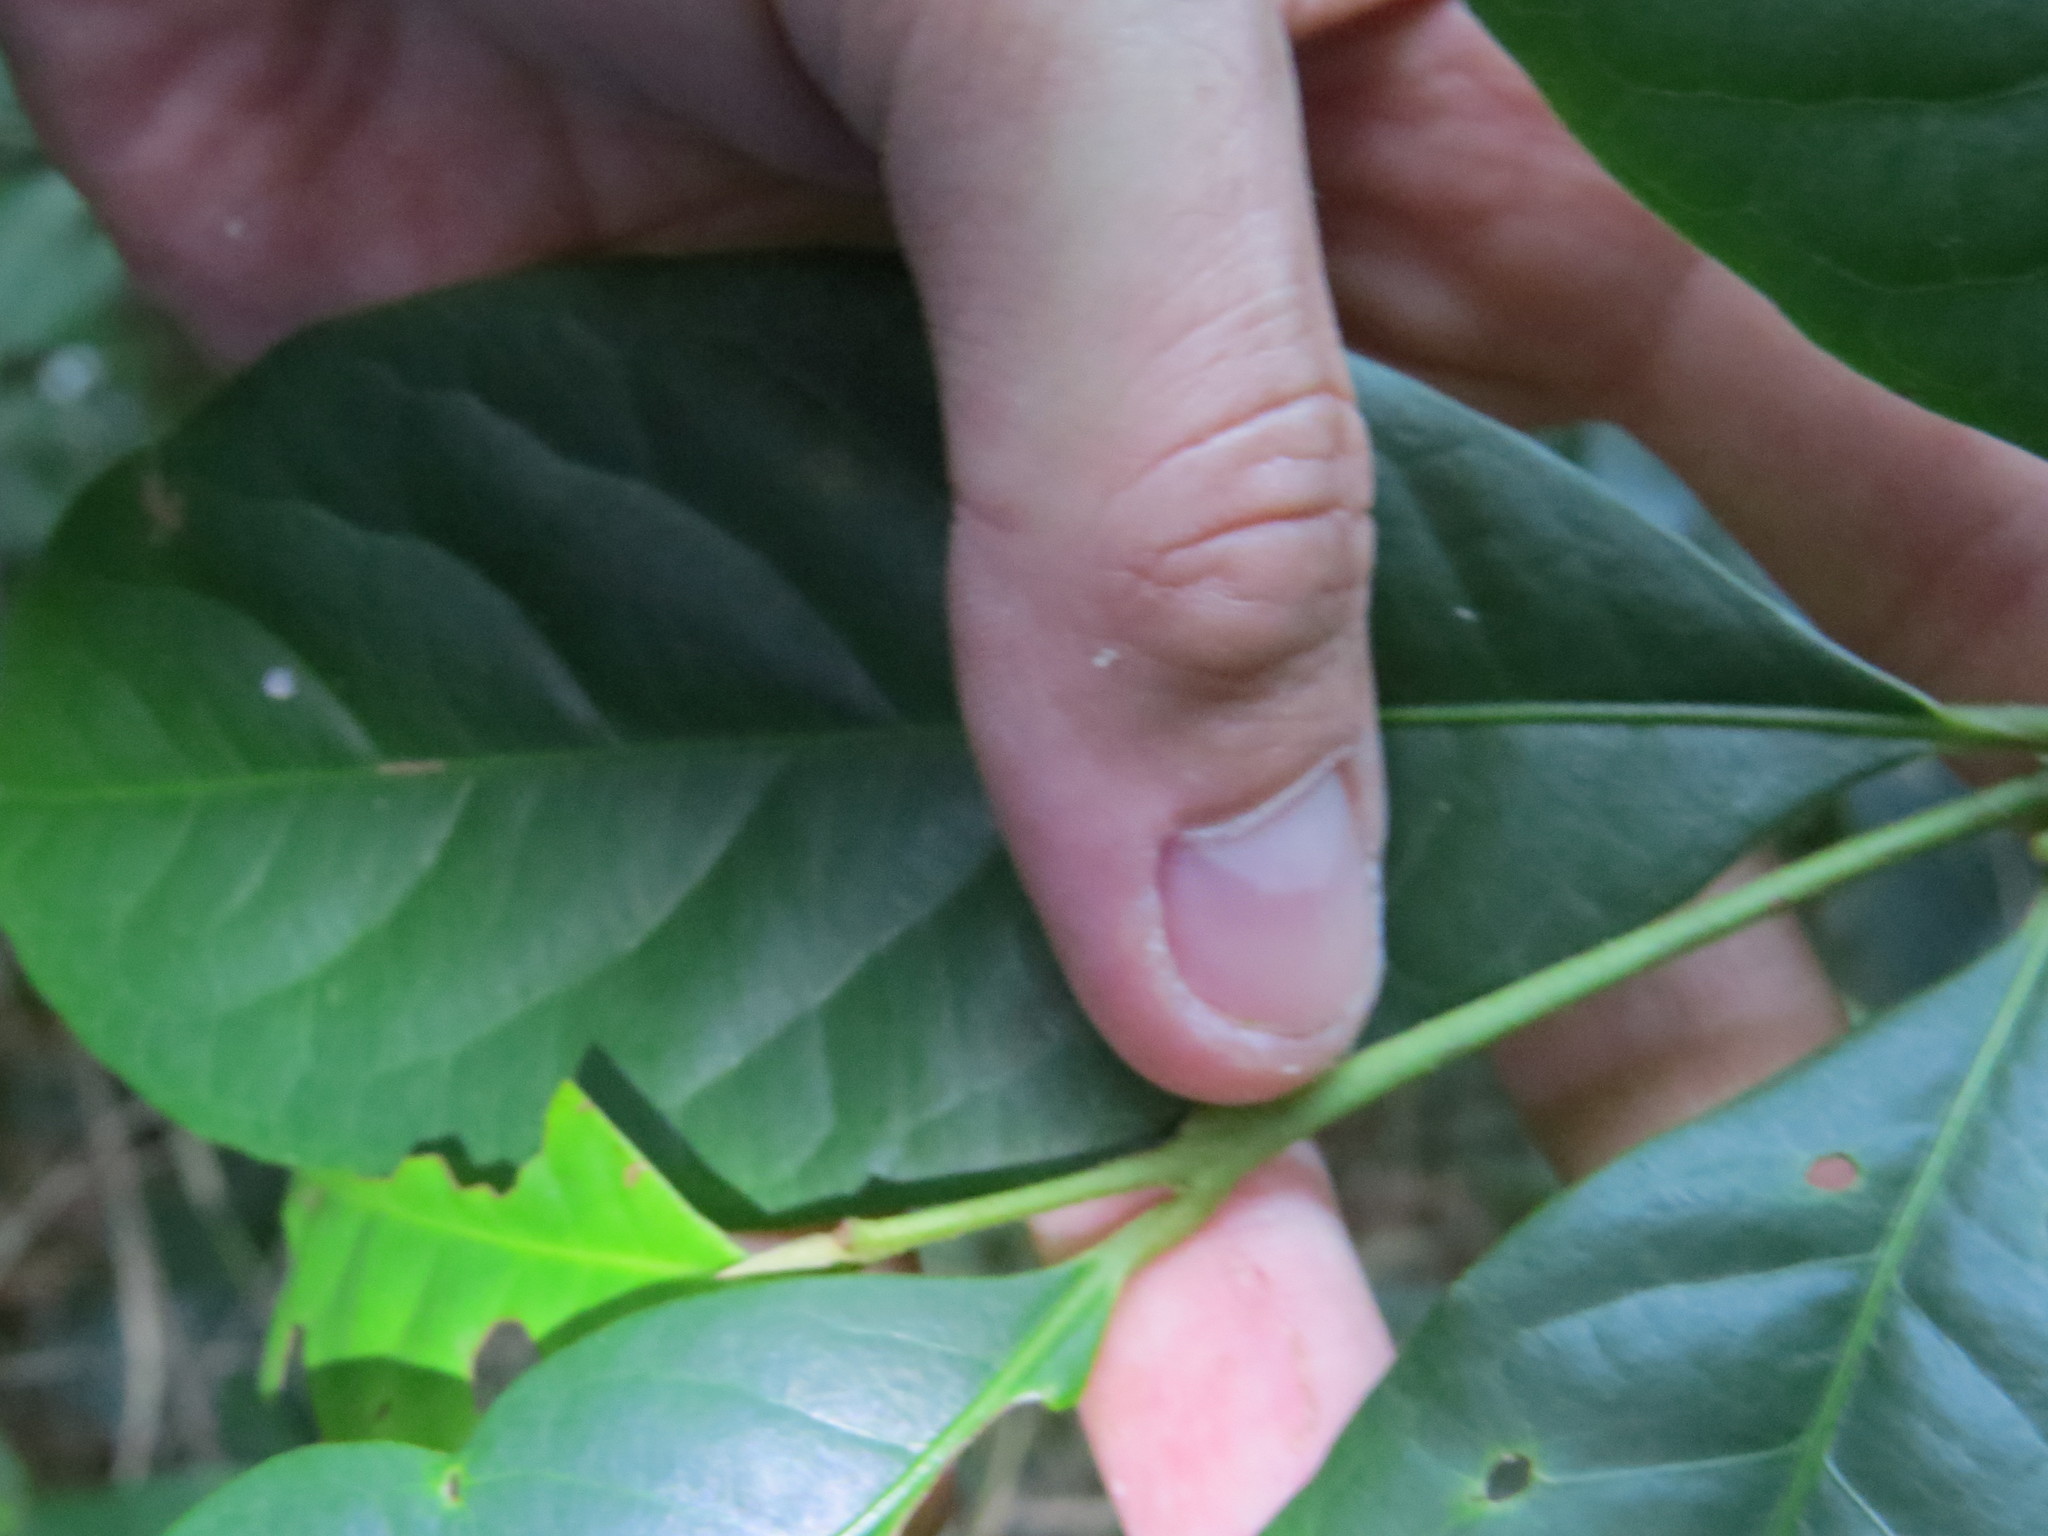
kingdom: Plantae
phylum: Tracheophyta
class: Magnoliopsida
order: Laurales
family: Siparunaceae
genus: Siparuna
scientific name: Siparuna guianensis
